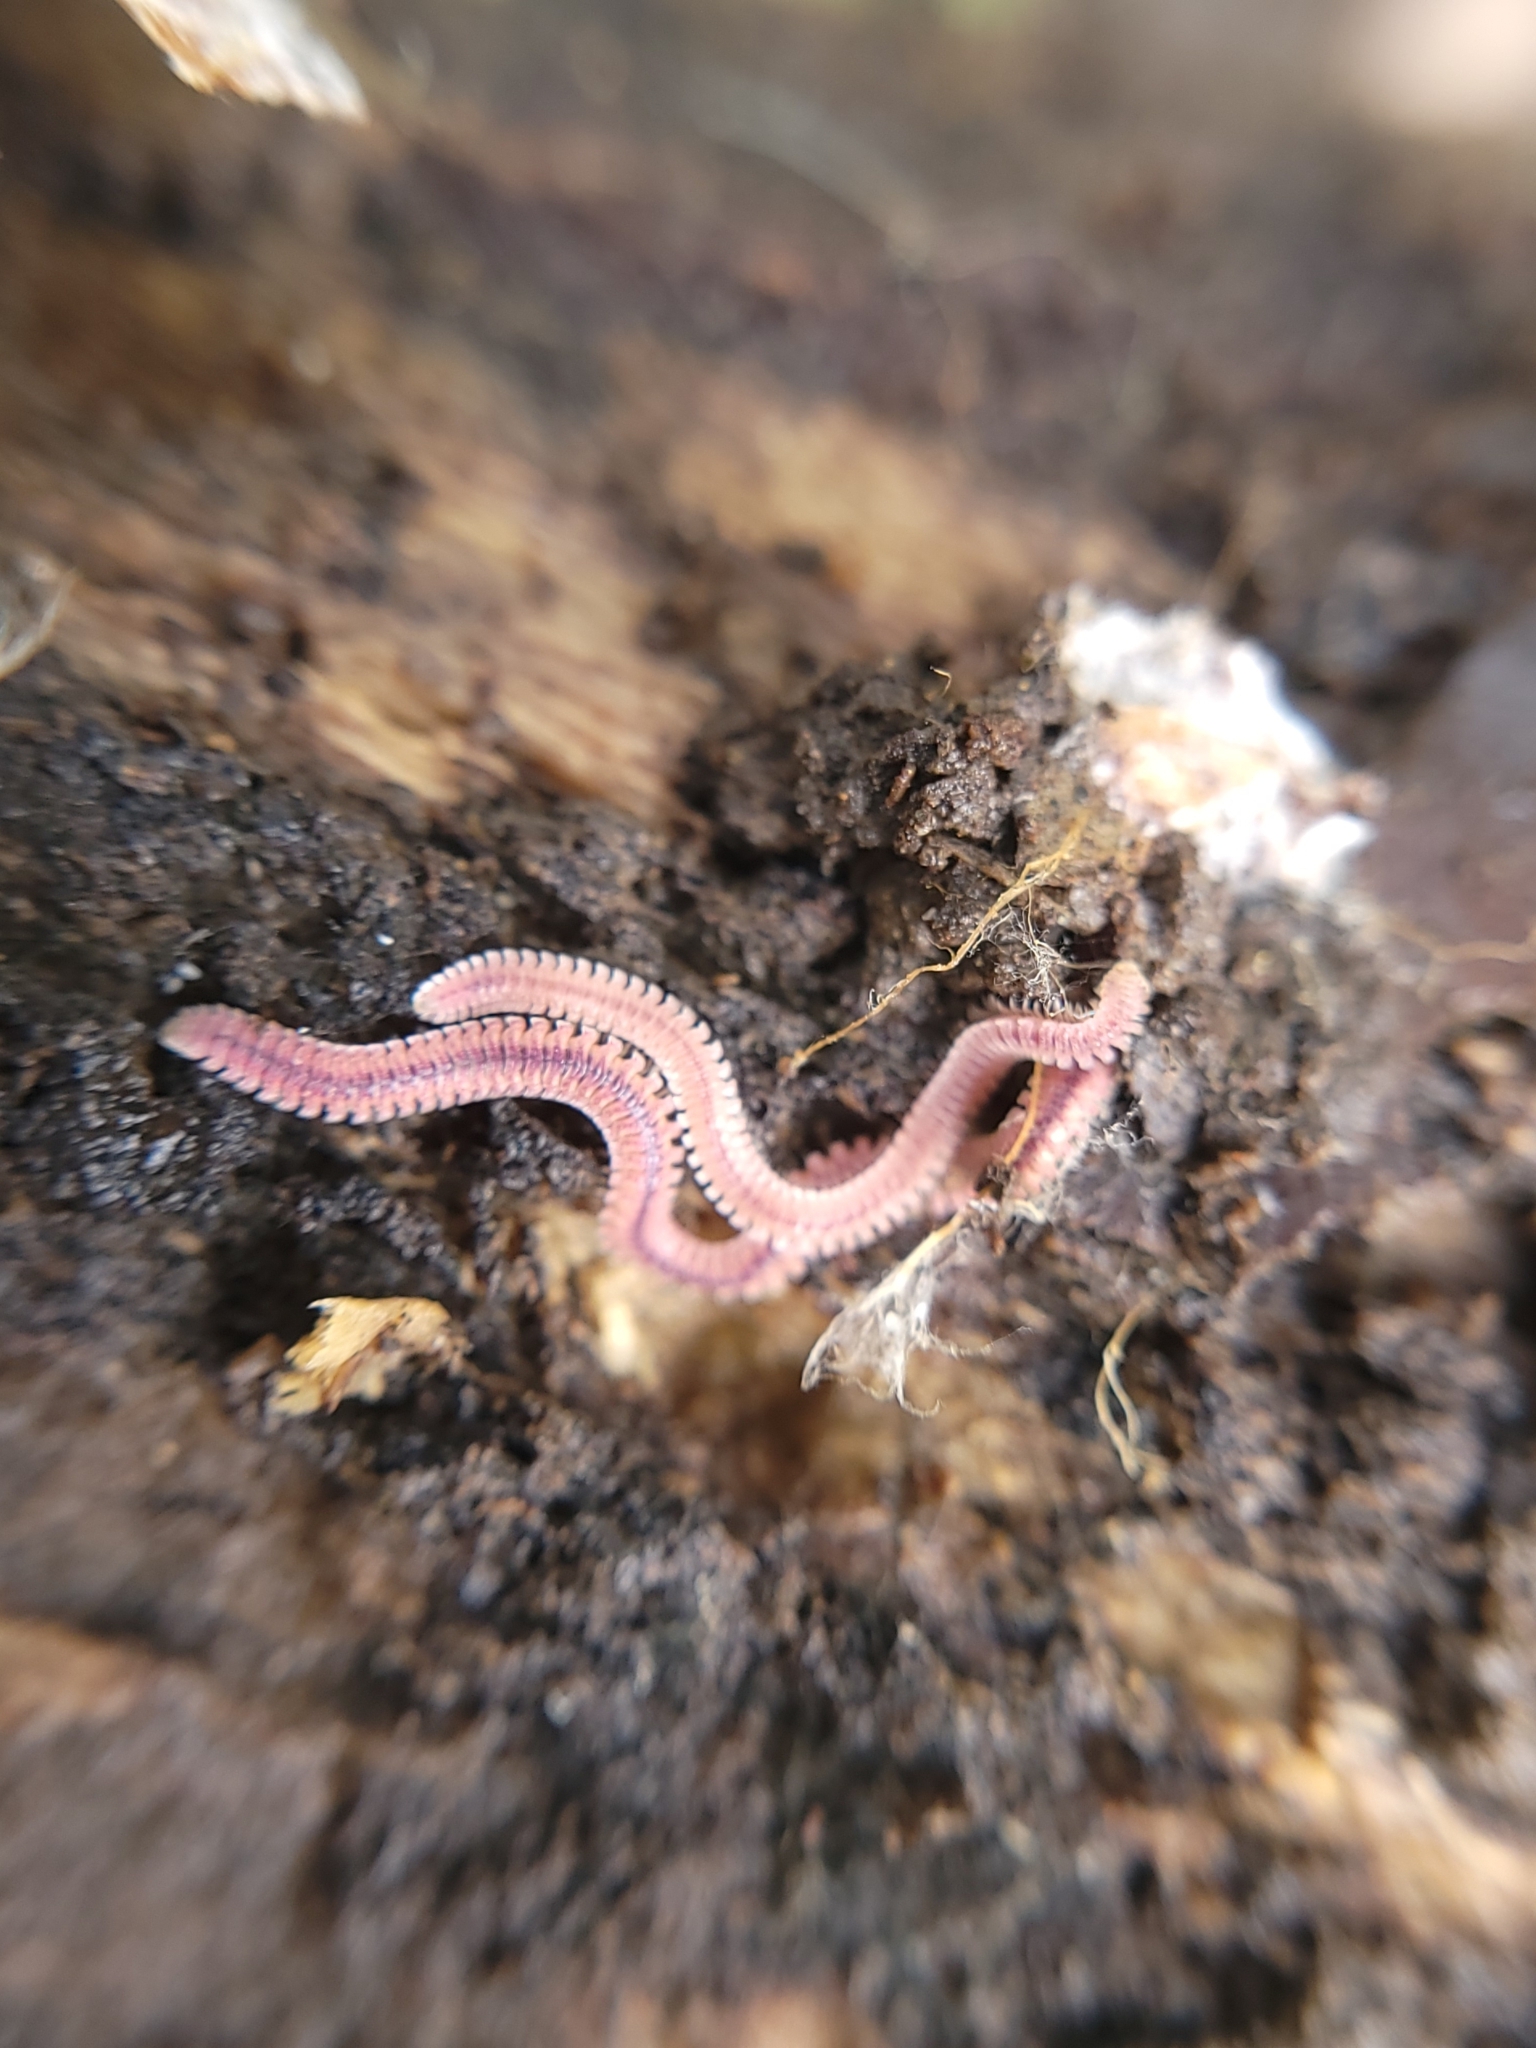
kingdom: Animalia
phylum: Arthropoda
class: Diplopoda
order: Platydesmida
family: Andrognathidae
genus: Gosodesmus
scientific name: Gosodesmus claremontus
